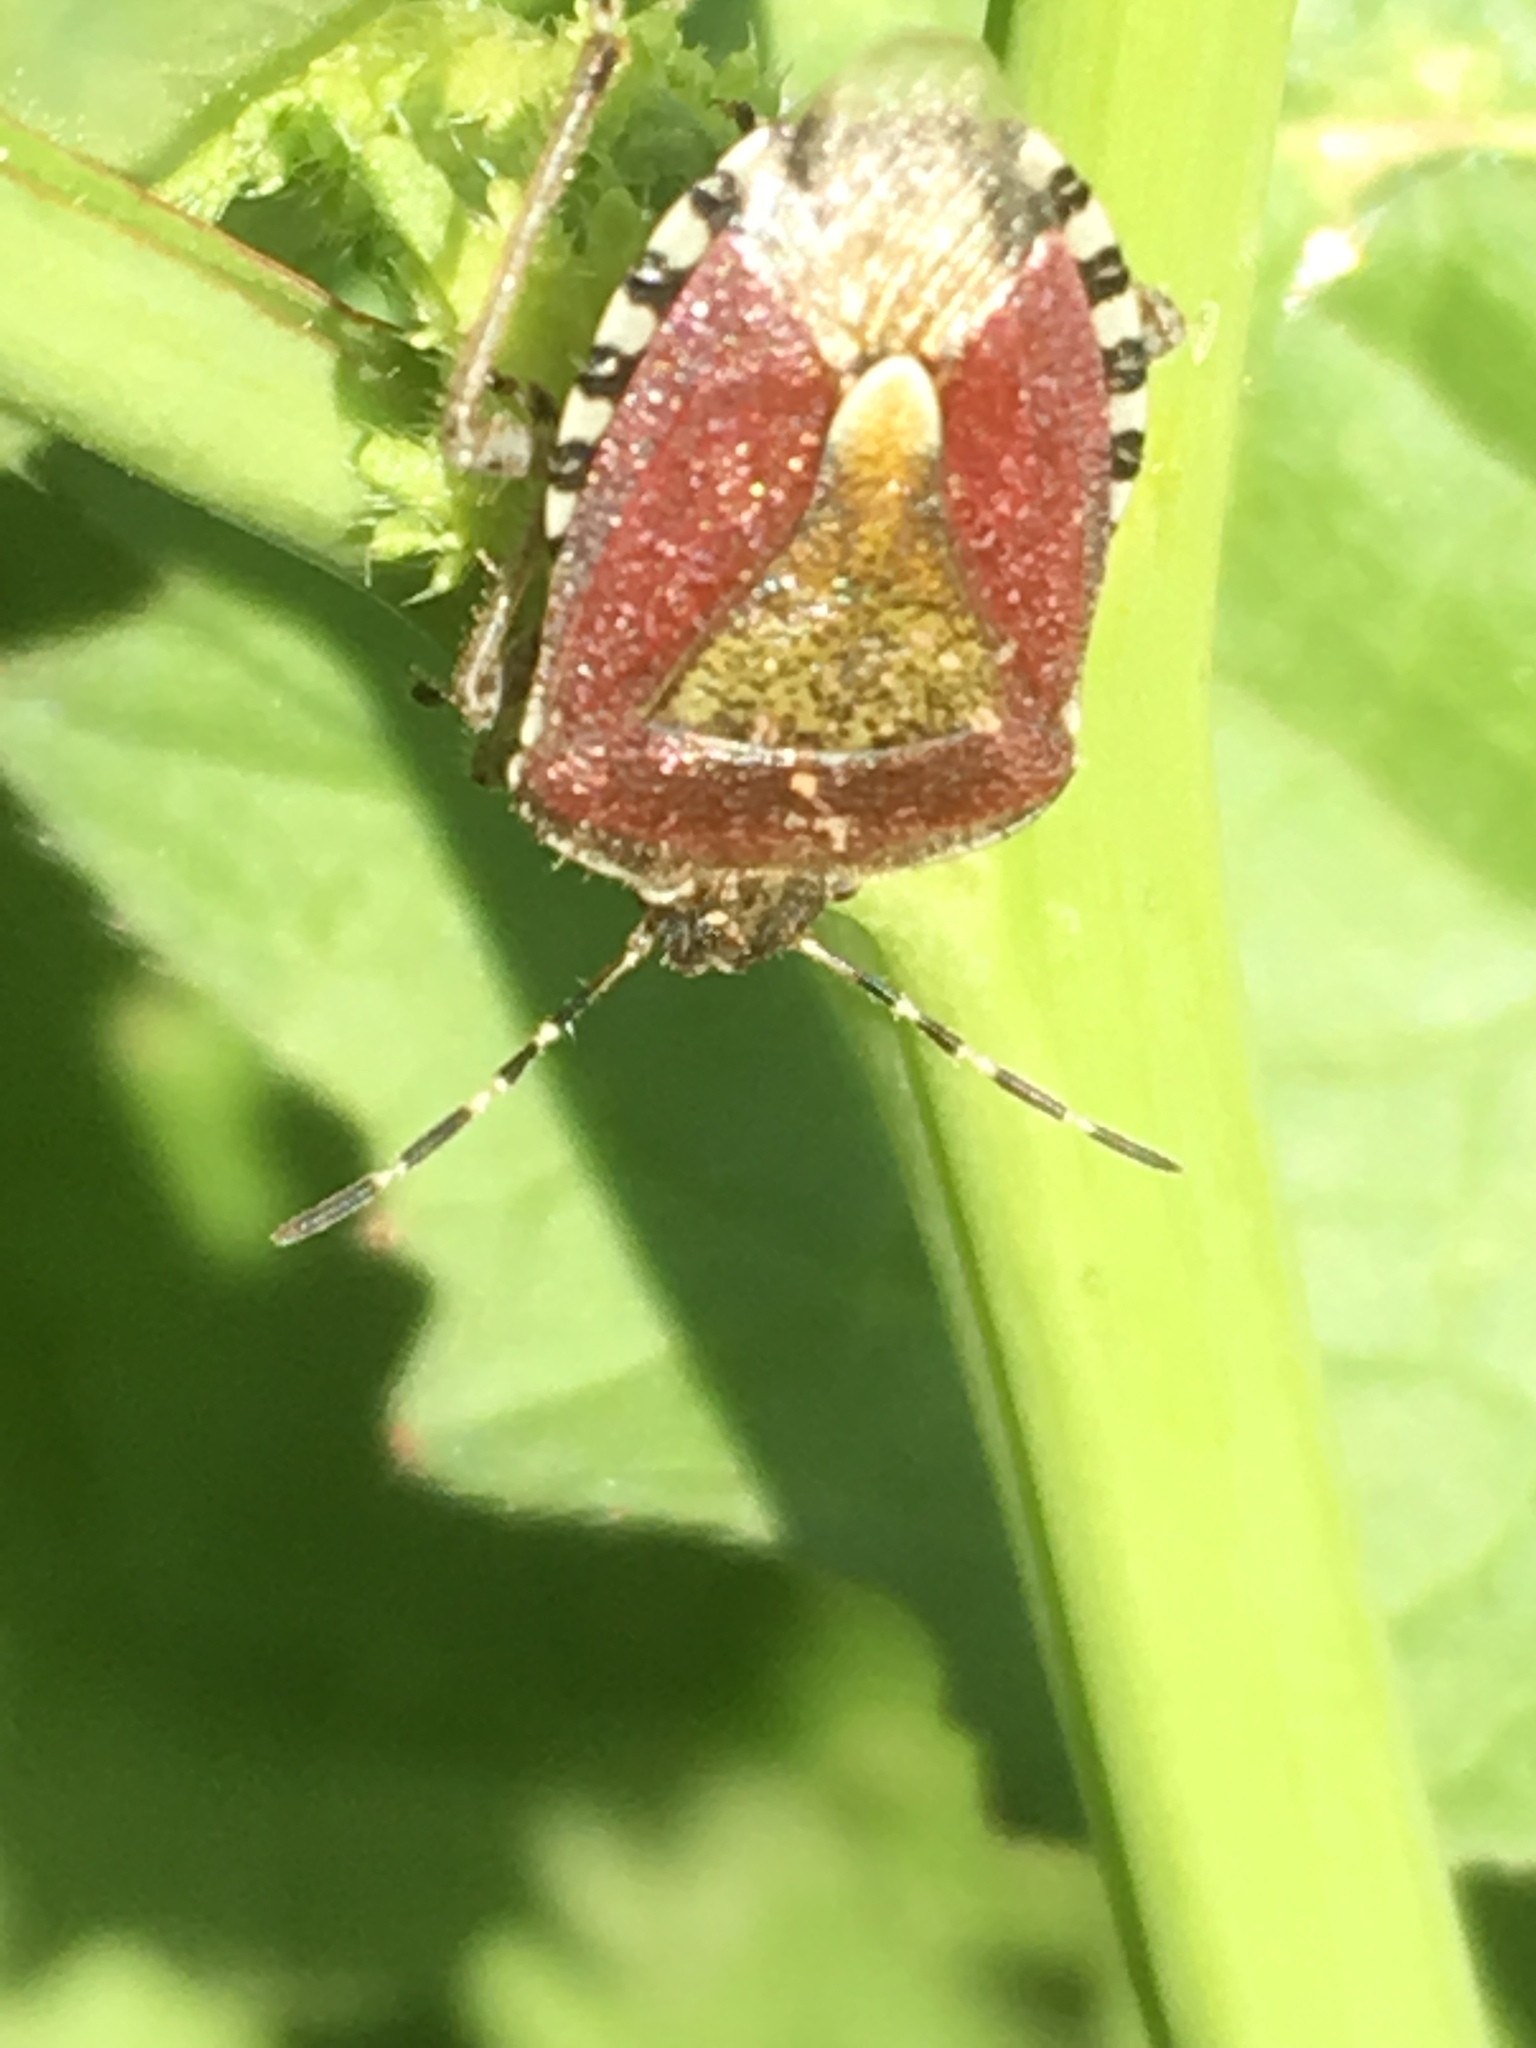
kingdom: Animalia
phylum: Arthropoda
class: Insecta
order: Hemiptera
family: Pentatomidae
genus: Dolycoris
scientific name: Dolycoris baccarum
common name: Sloe bug
